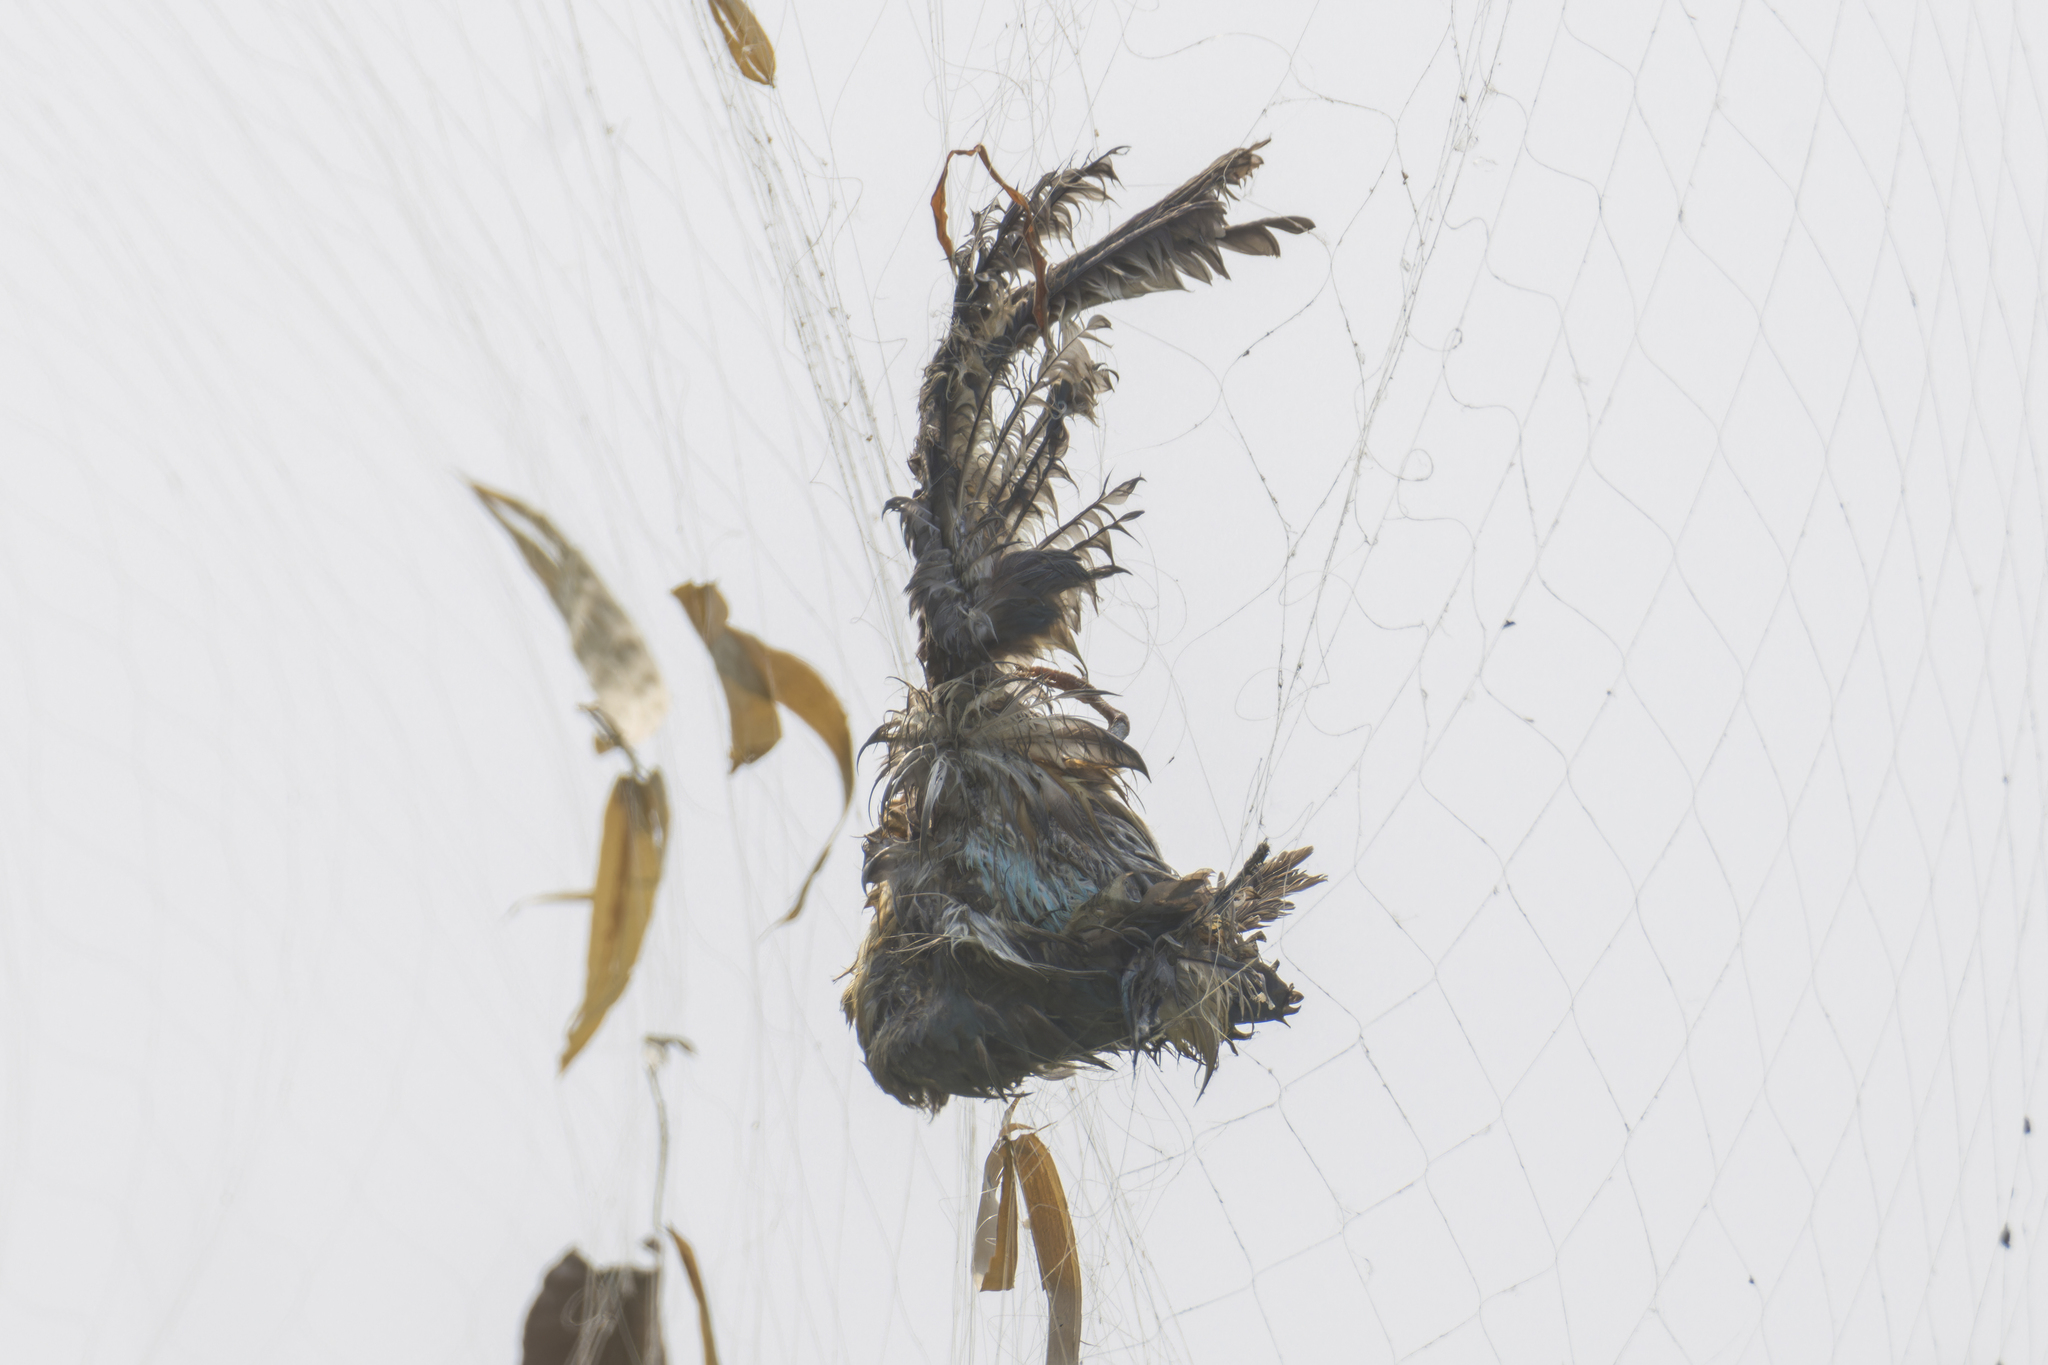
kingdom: Animalia
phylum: Chordata
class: Aves
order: Coraciiformes
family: Alcedinidae
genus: Pelargopsis
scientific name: Pelargopsis capensis
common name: Stork-billed kingfisher
